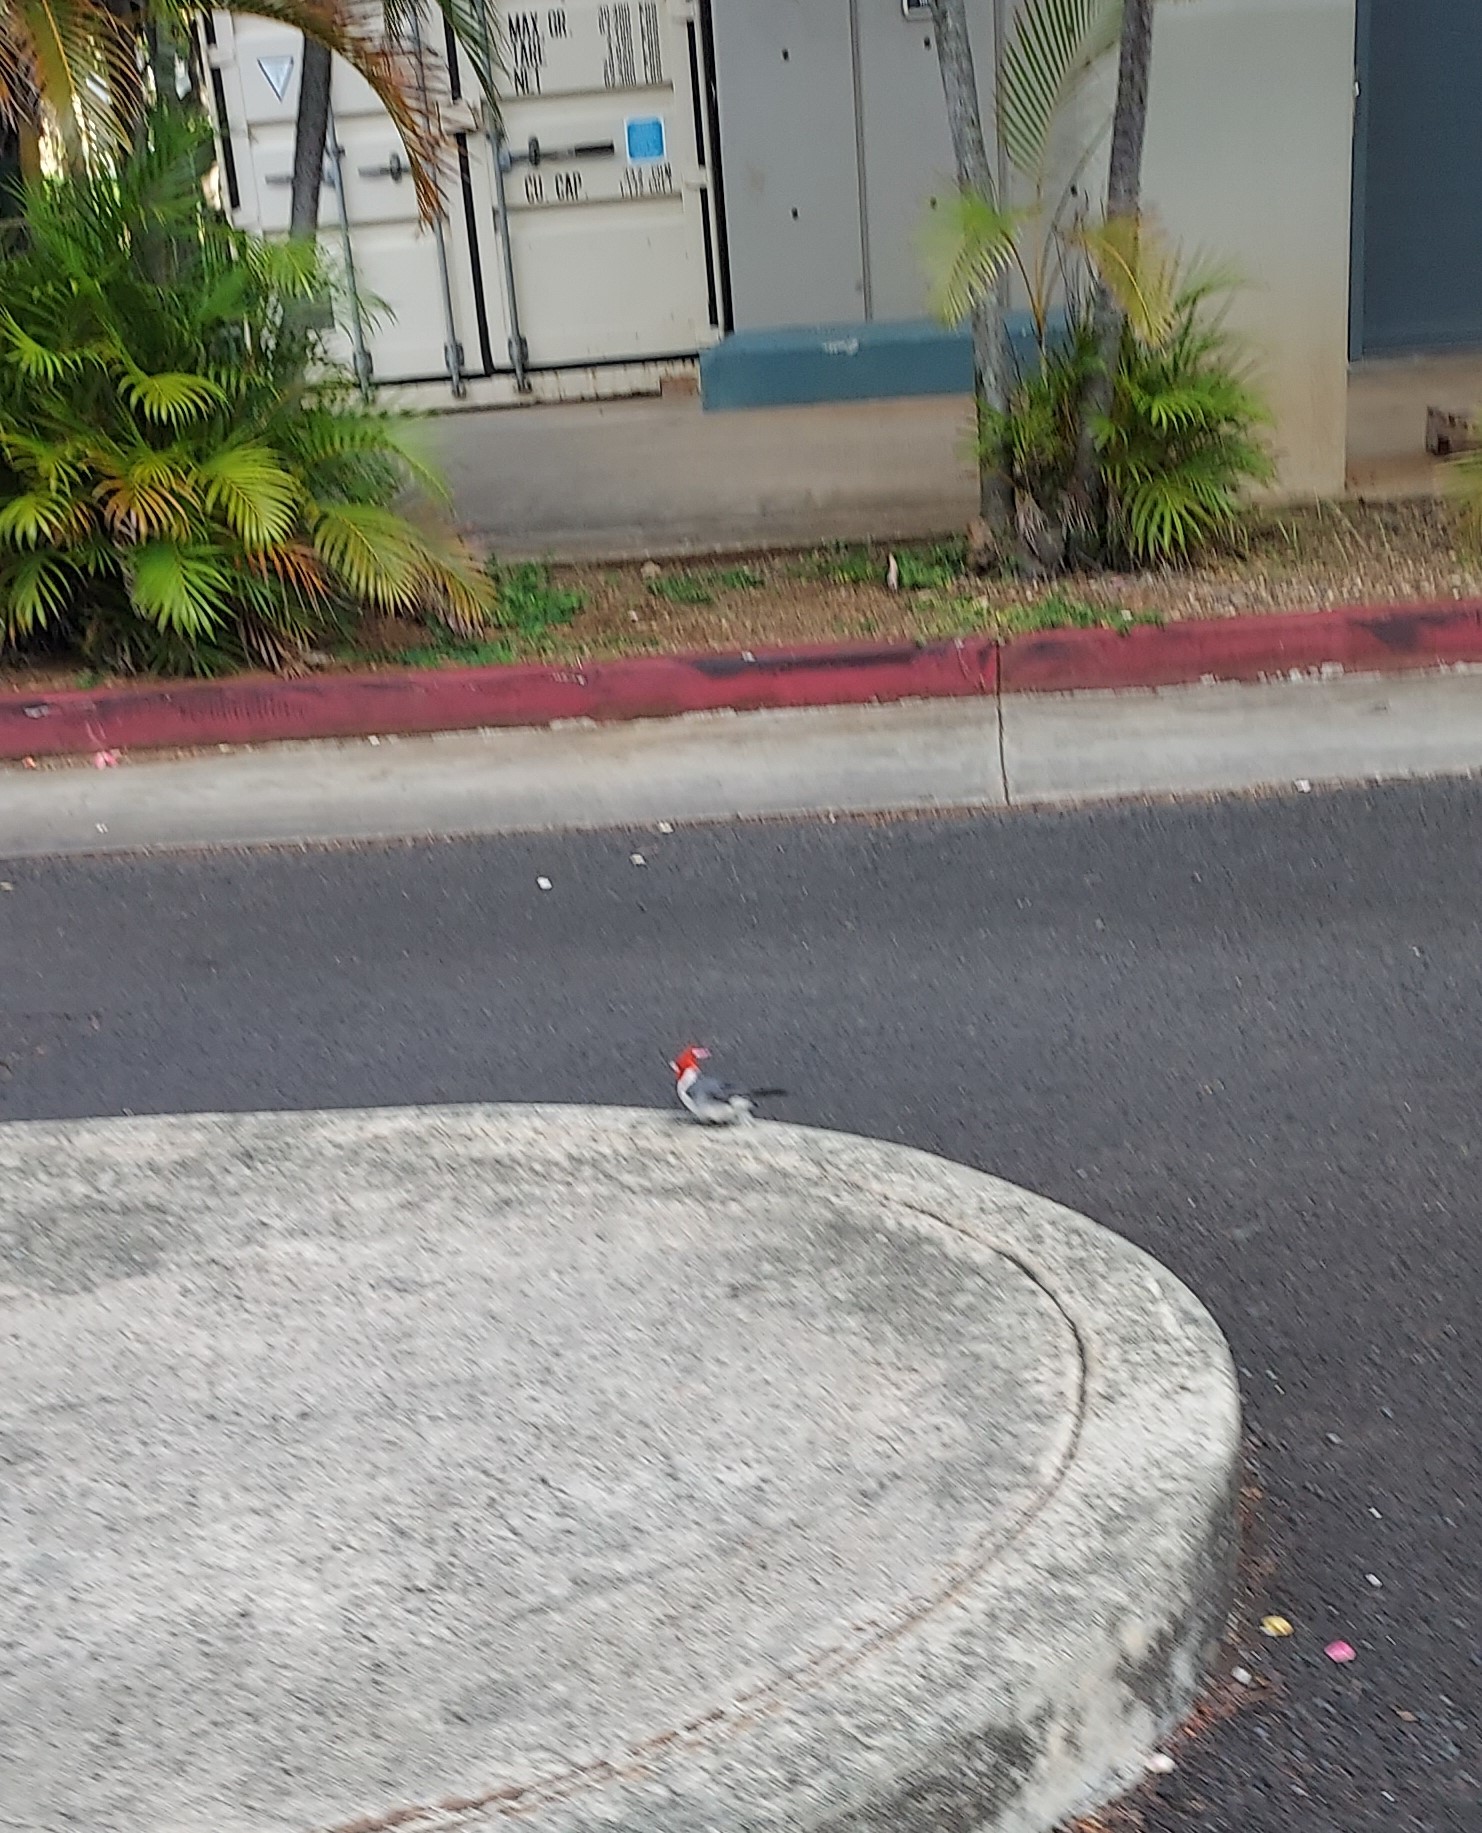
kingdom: Animalia
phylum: Chordata
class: Aves
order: Passeriformes
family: Thraupidae
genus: Paroaria
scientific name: Paroaria coronata
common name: Red-crested cardinal
